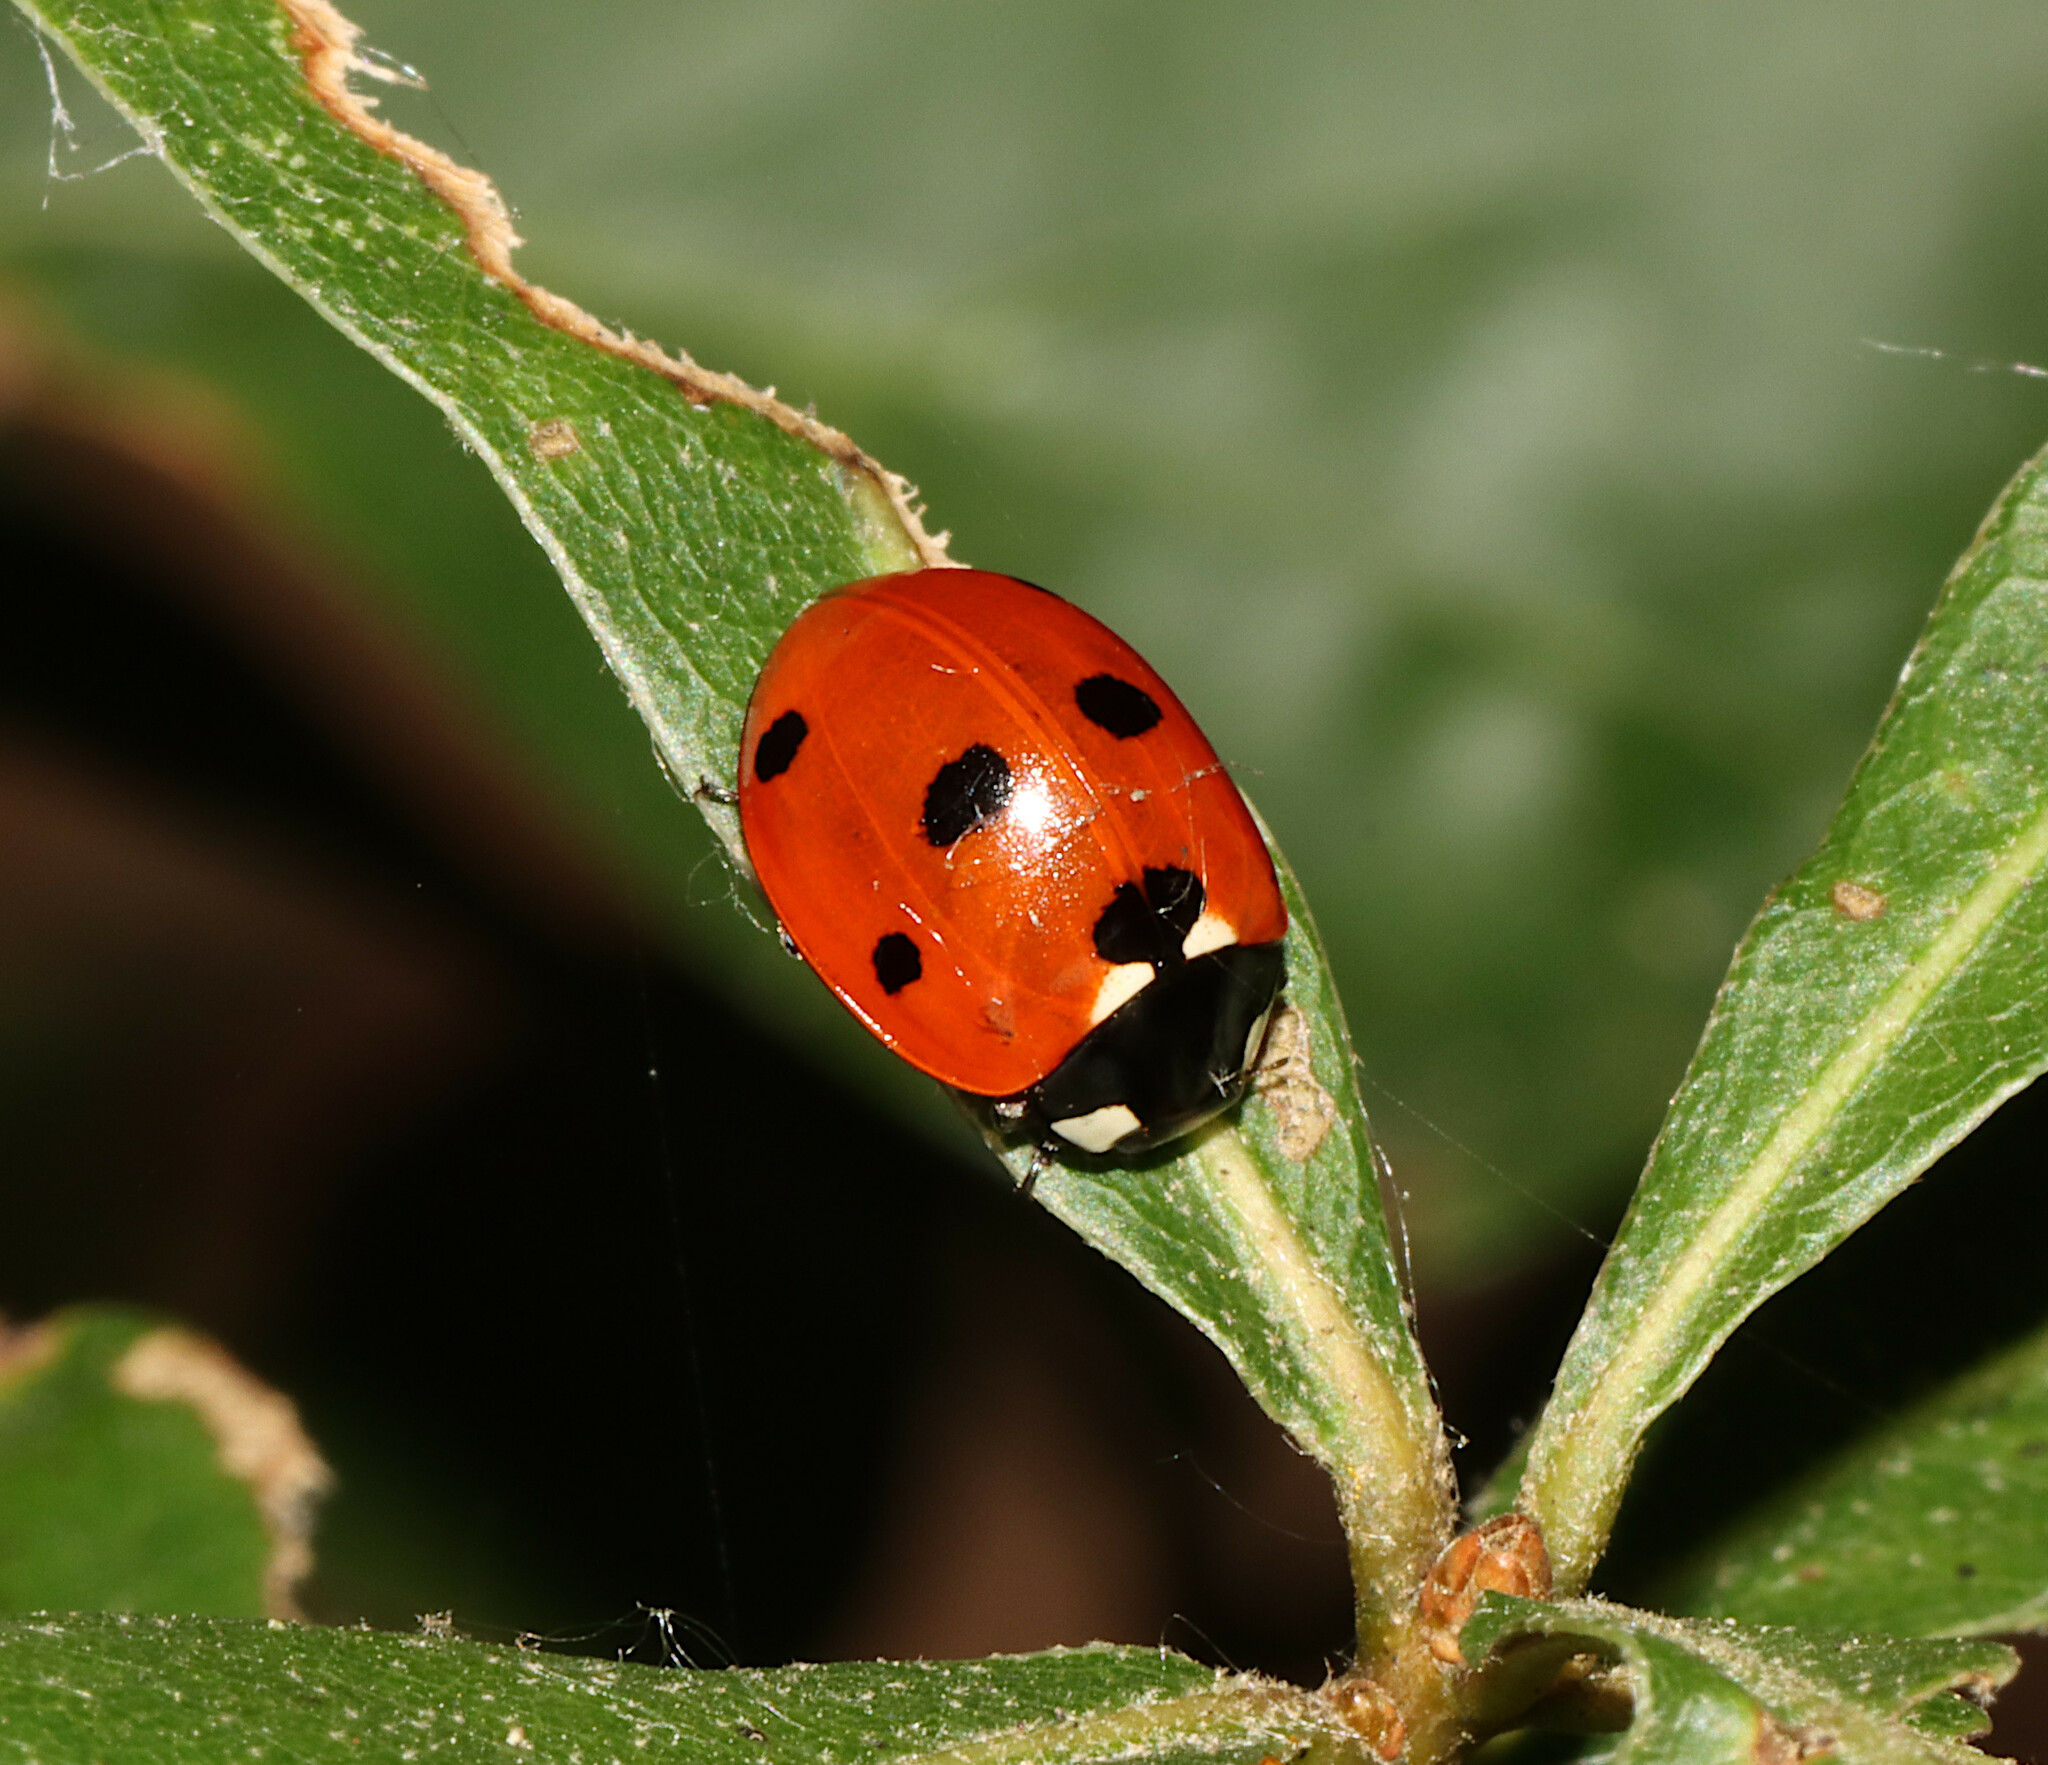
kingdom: Animalia
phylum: Arthropoda
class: Insecta
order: Coleoptera
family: Coccinellidae
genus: Coccinella
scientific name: Coccinella septempunctata
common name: Sevenspotted lady beetle
